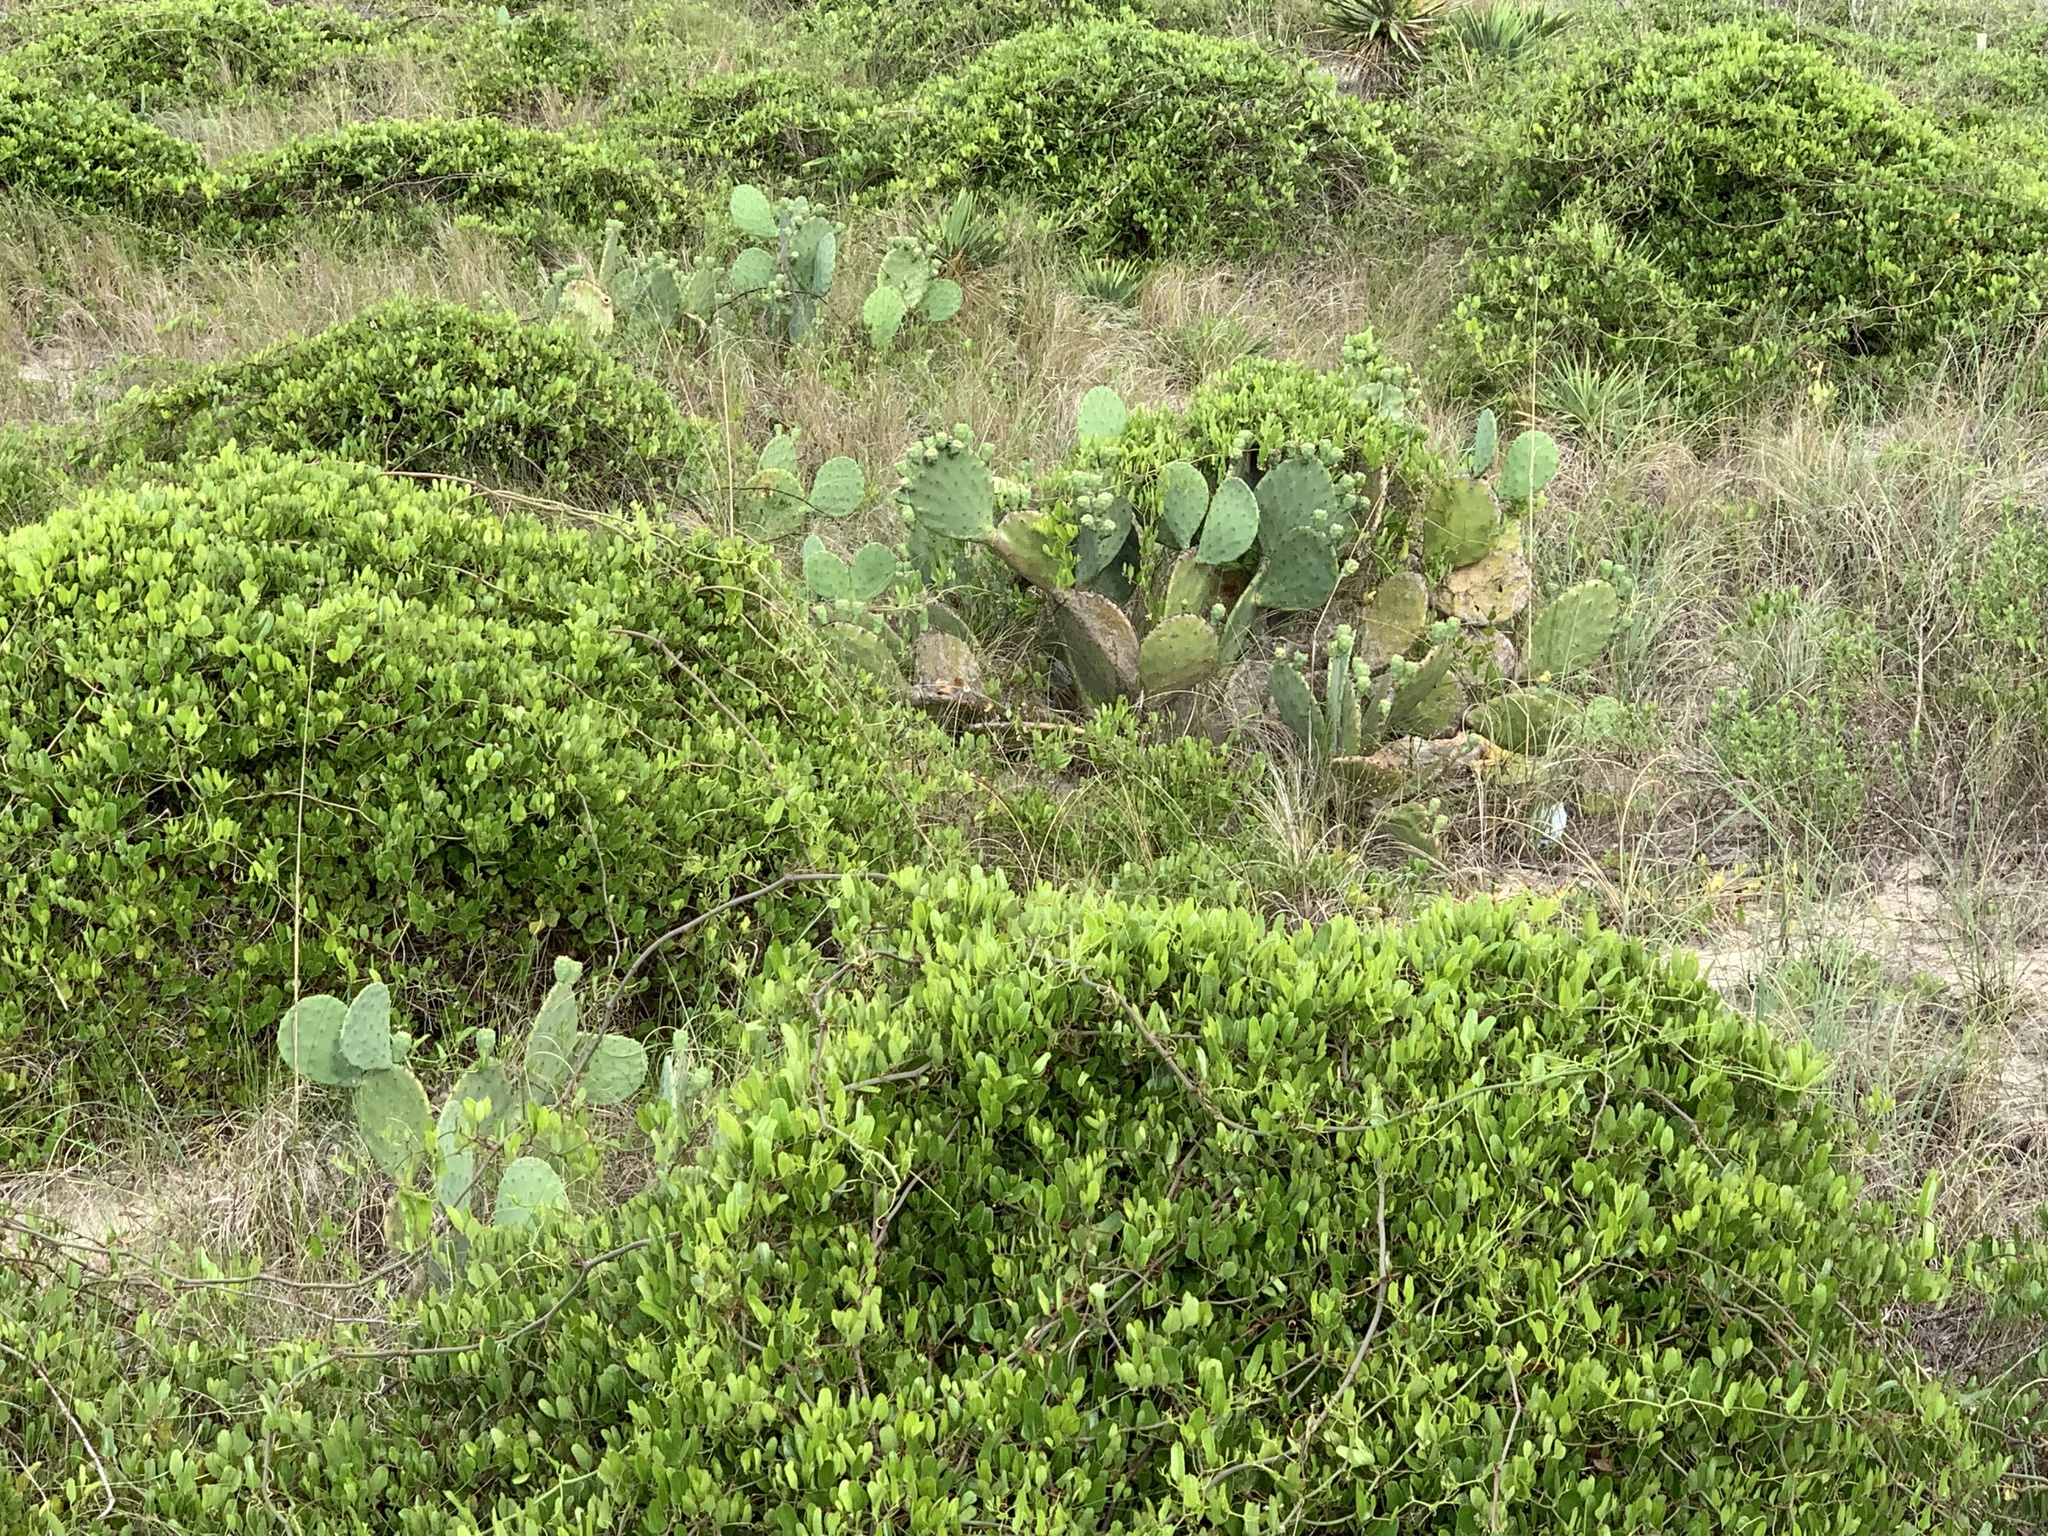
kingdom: Plantae
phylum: Tracheophyta
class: Magnoliopsida
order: Caryophyllales
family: Cactaceae
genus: Opuntia
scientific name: Opuntia tunoidea
